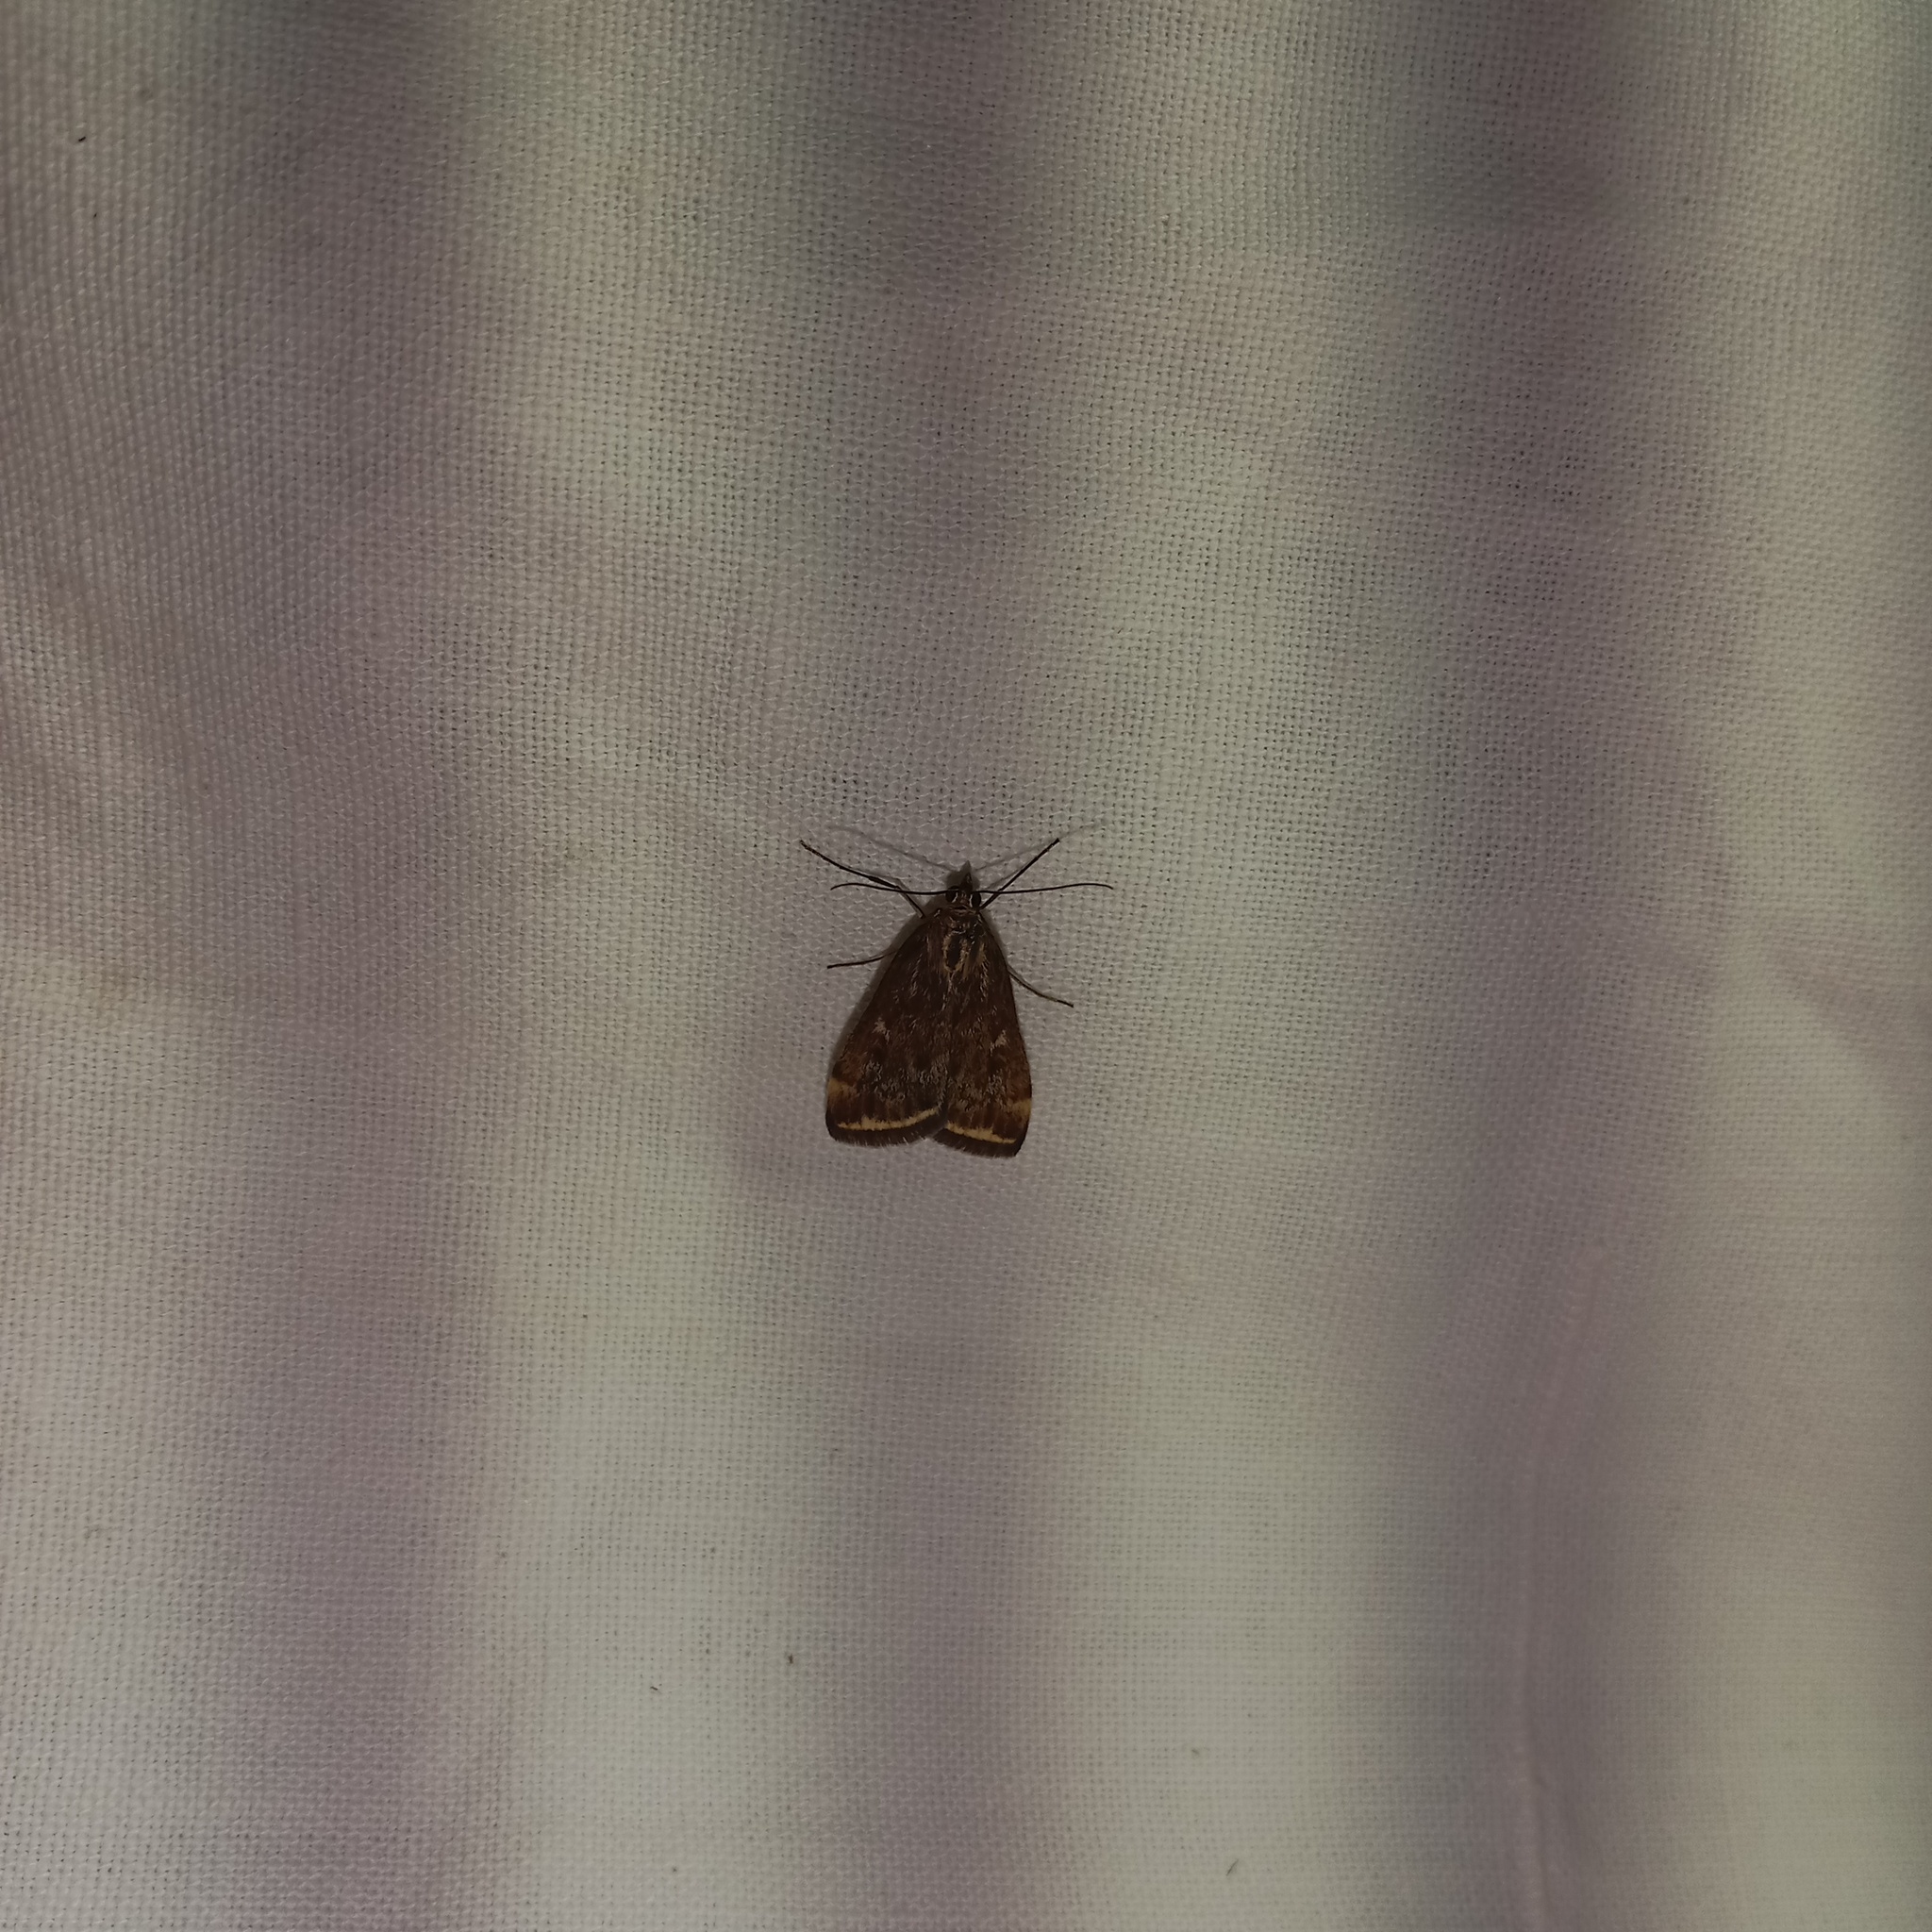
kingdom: Animalia
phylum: Arthropoda
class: Insecta
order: Lepidoptera
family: Crambidae
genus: Loxostege
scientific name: Loxostege sticticalis
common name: Crambid moth
